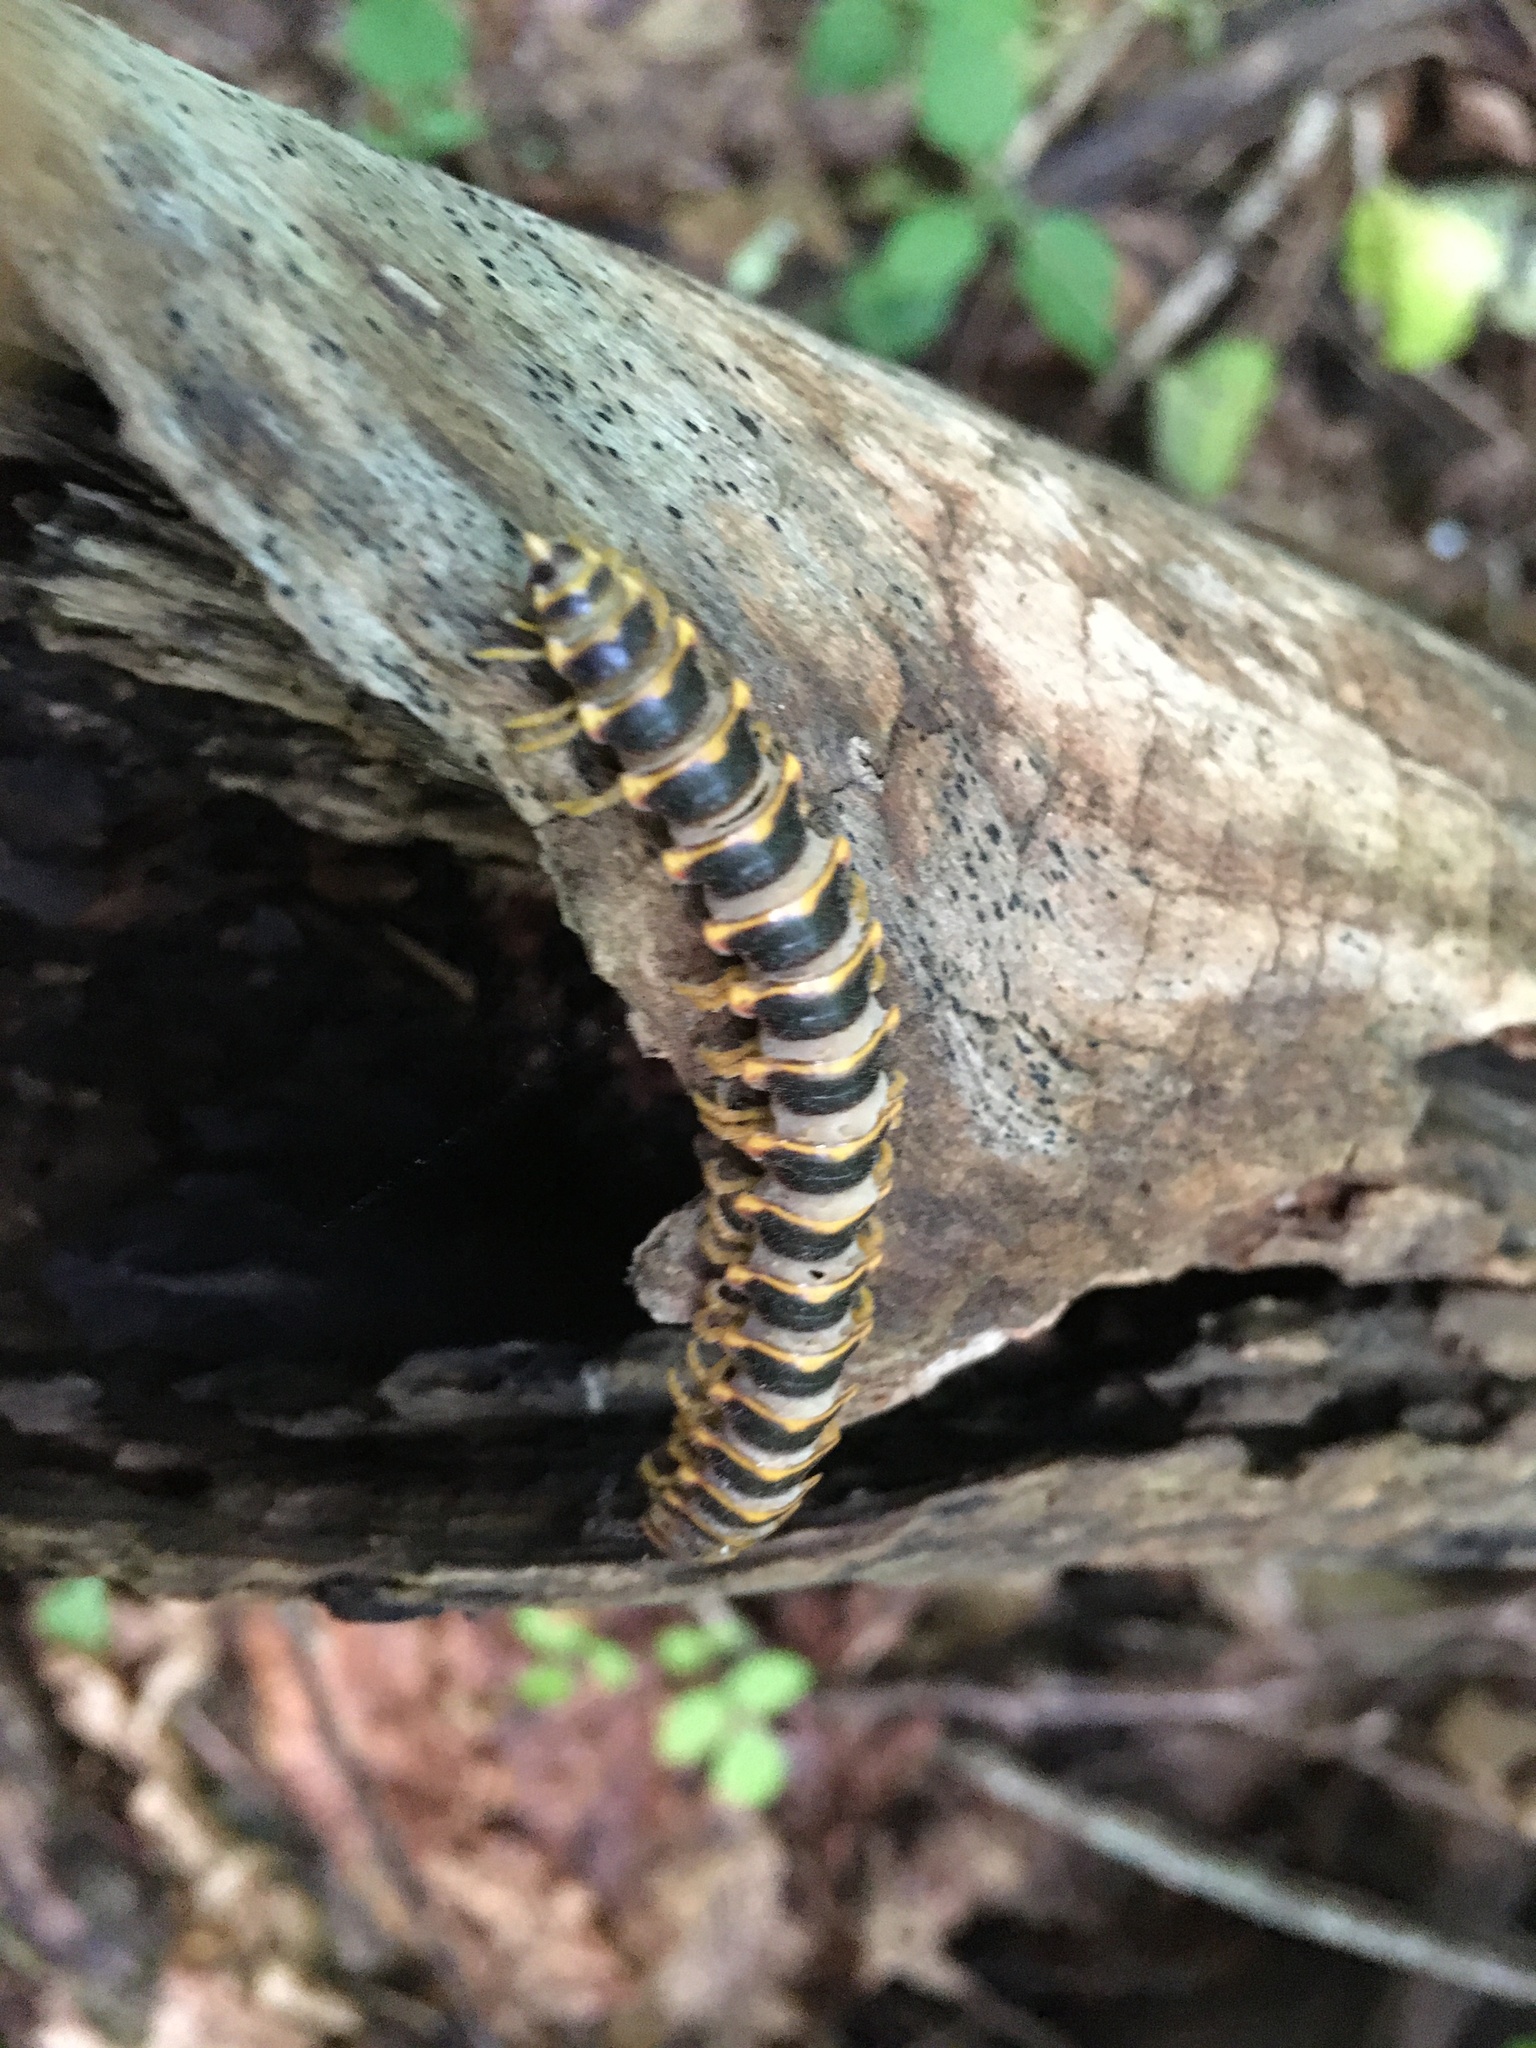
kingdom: Fungi
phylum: Entomophthoromycota
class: Entomophthoromycetes
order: Entomophthorales
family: Entomophthoraceae
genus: Arthrophaga
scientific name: Arthrophaga myriapodina
